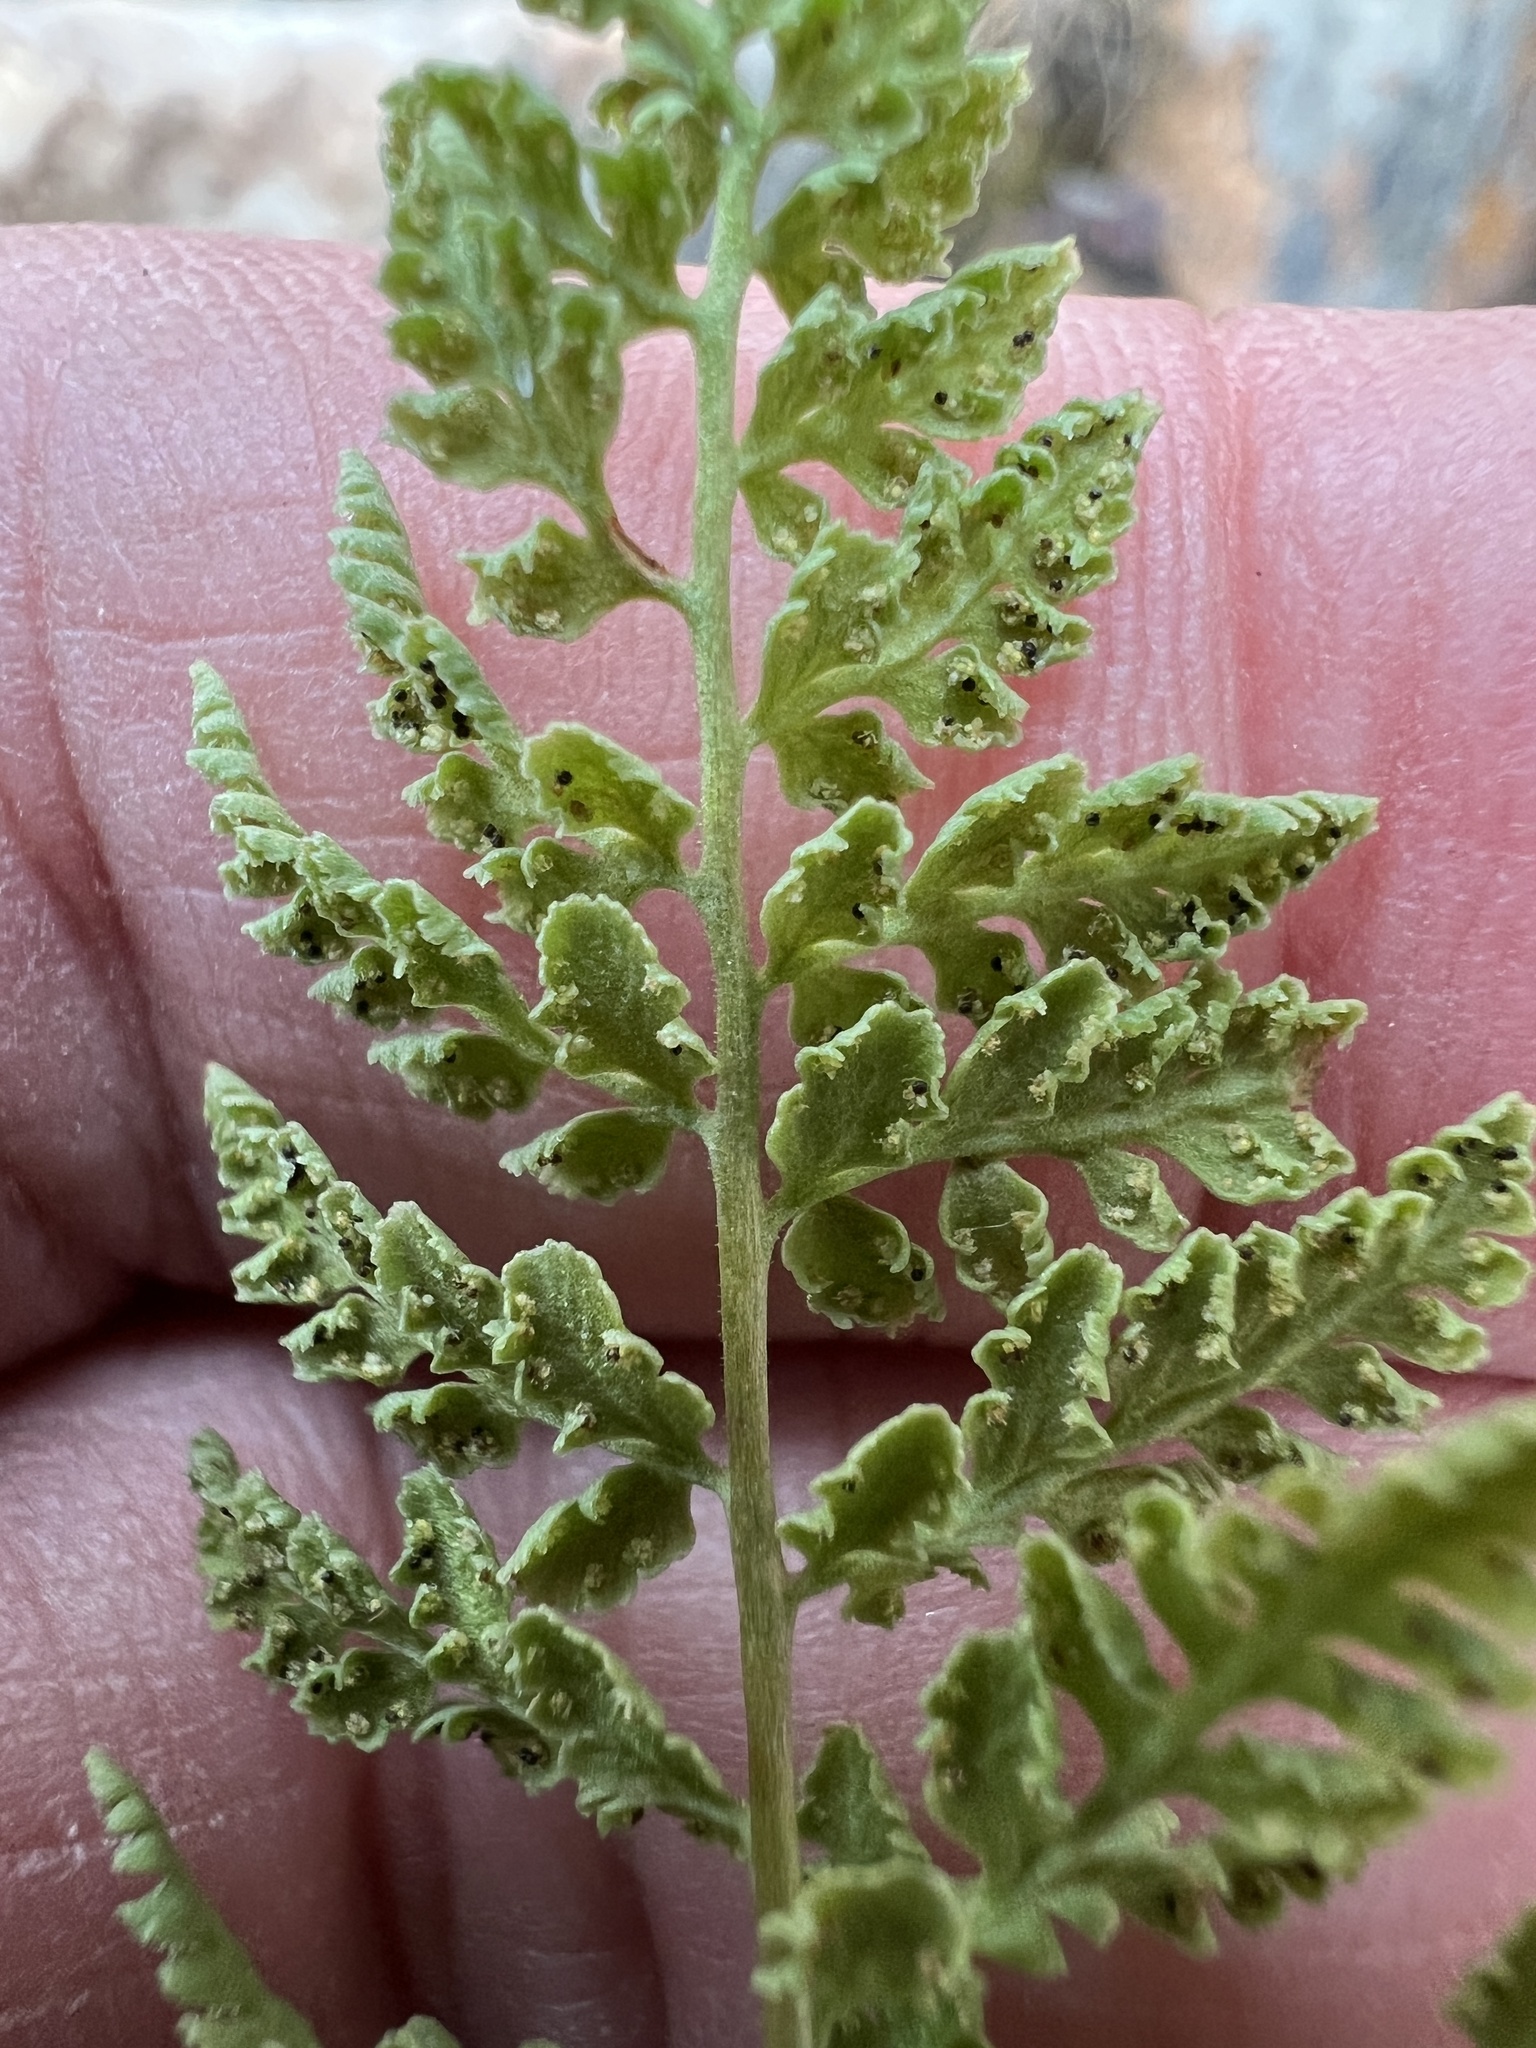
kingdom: Plantae
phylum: Tracheophyta
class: Polypodiopsida
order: Polypodiales
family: Woodsiaceae
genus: Physematium
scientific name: Physematium oreganum
